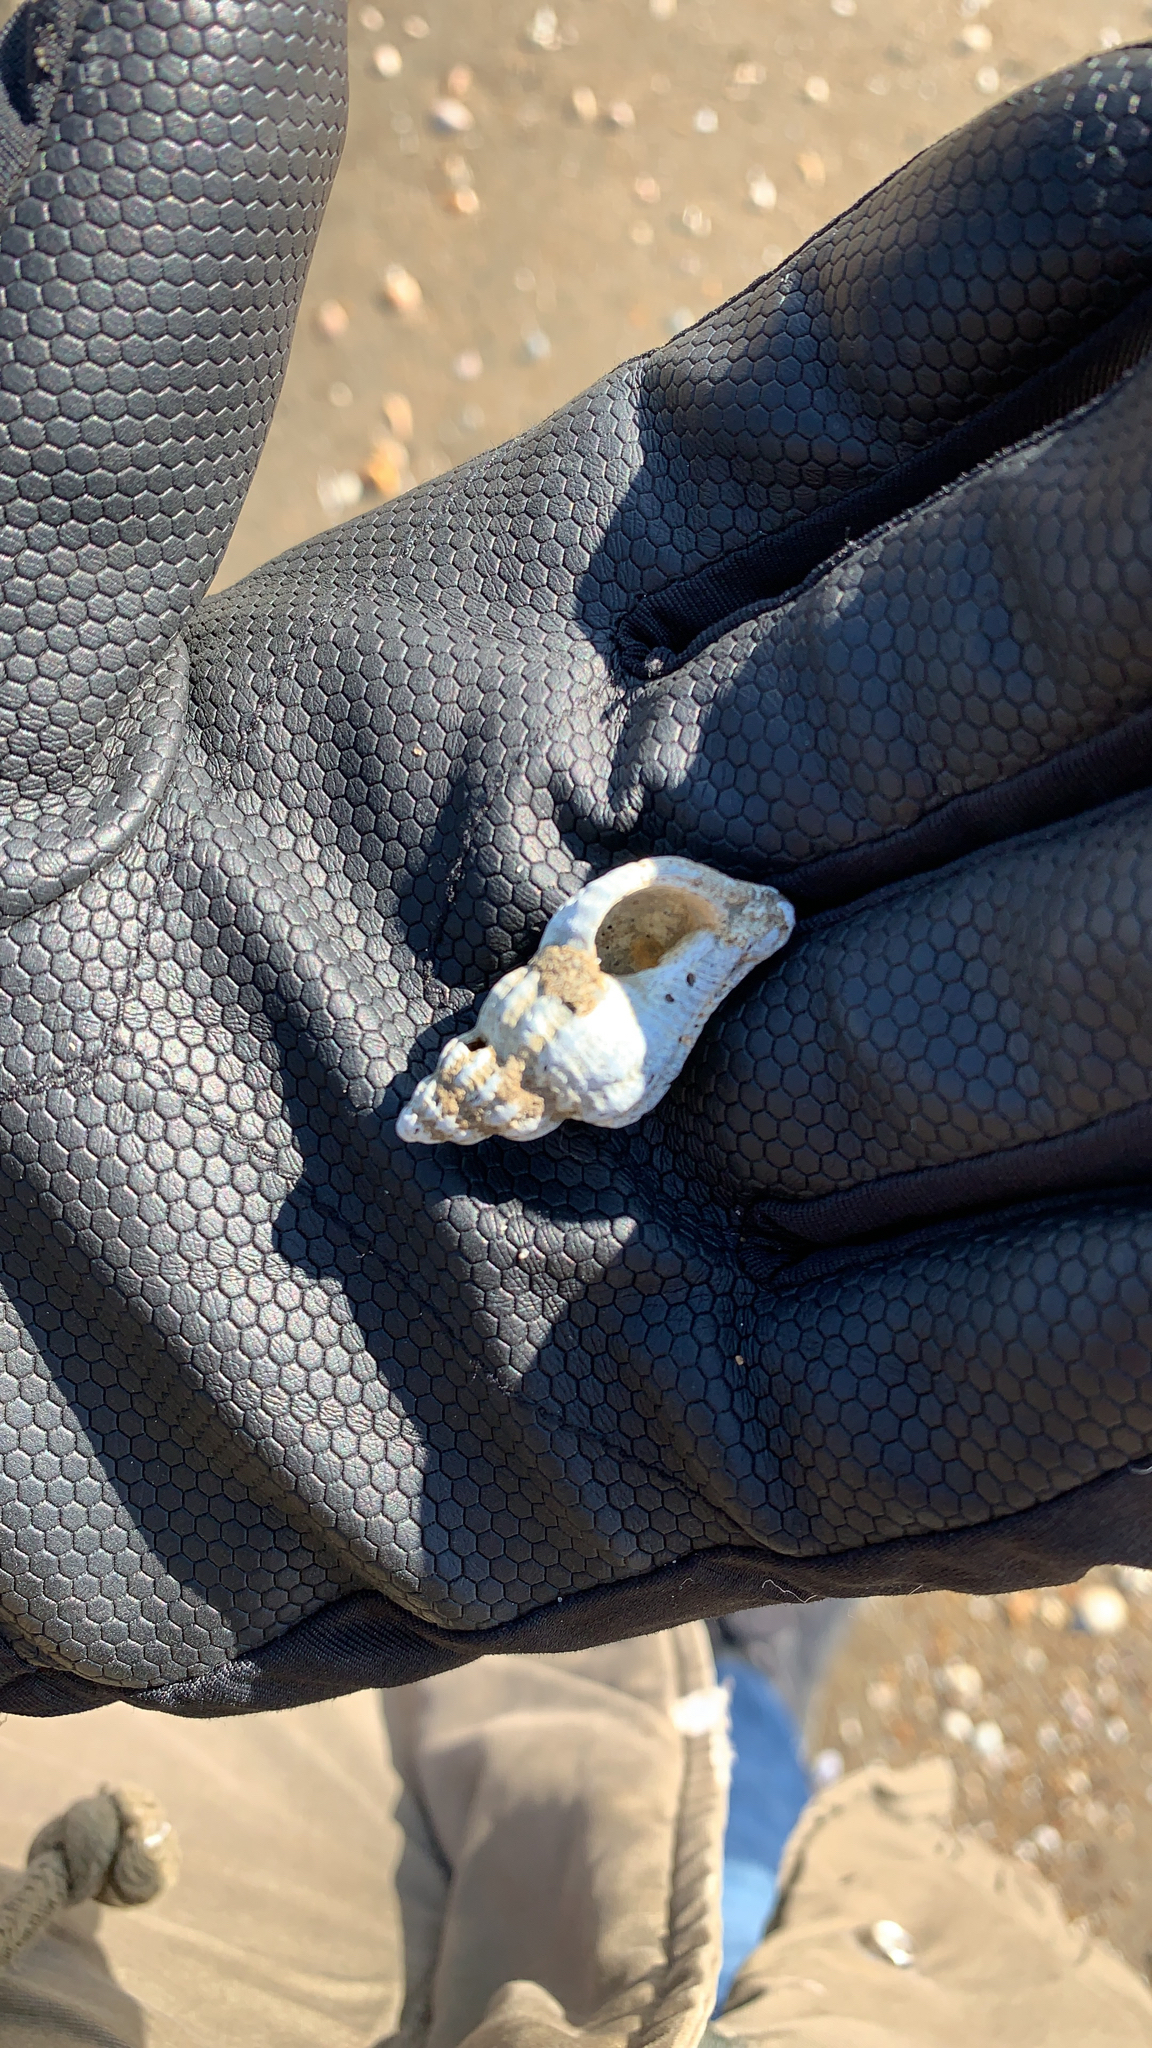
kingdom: Animalia
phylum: Mollusca
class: Gastropoda
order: Neogastropoda
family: Muricidae
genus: Urosalpinx
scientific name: Urosalpinx cinerea
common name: American sting winkle
